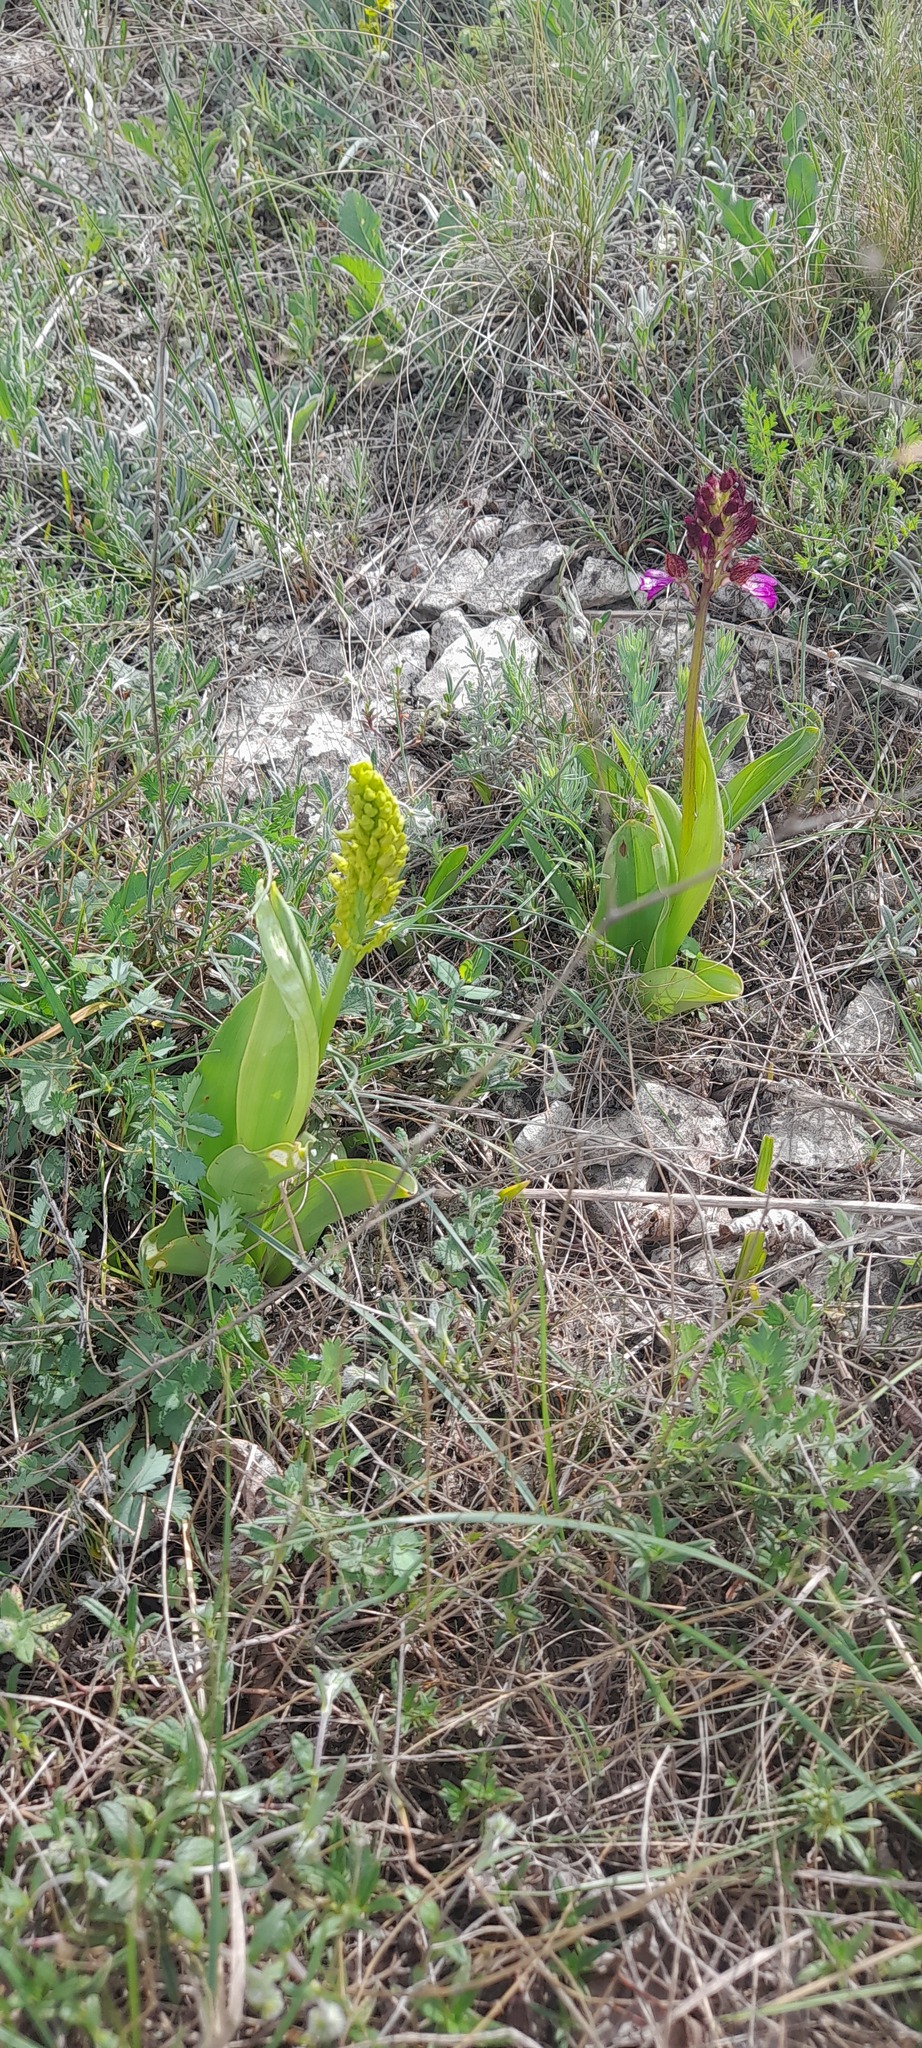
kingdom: Plantae
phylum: Tracheophyta
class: Liliopsida
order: Asparagales
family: Orchidaceae
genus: Orchis
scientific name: Orchis punctulata
